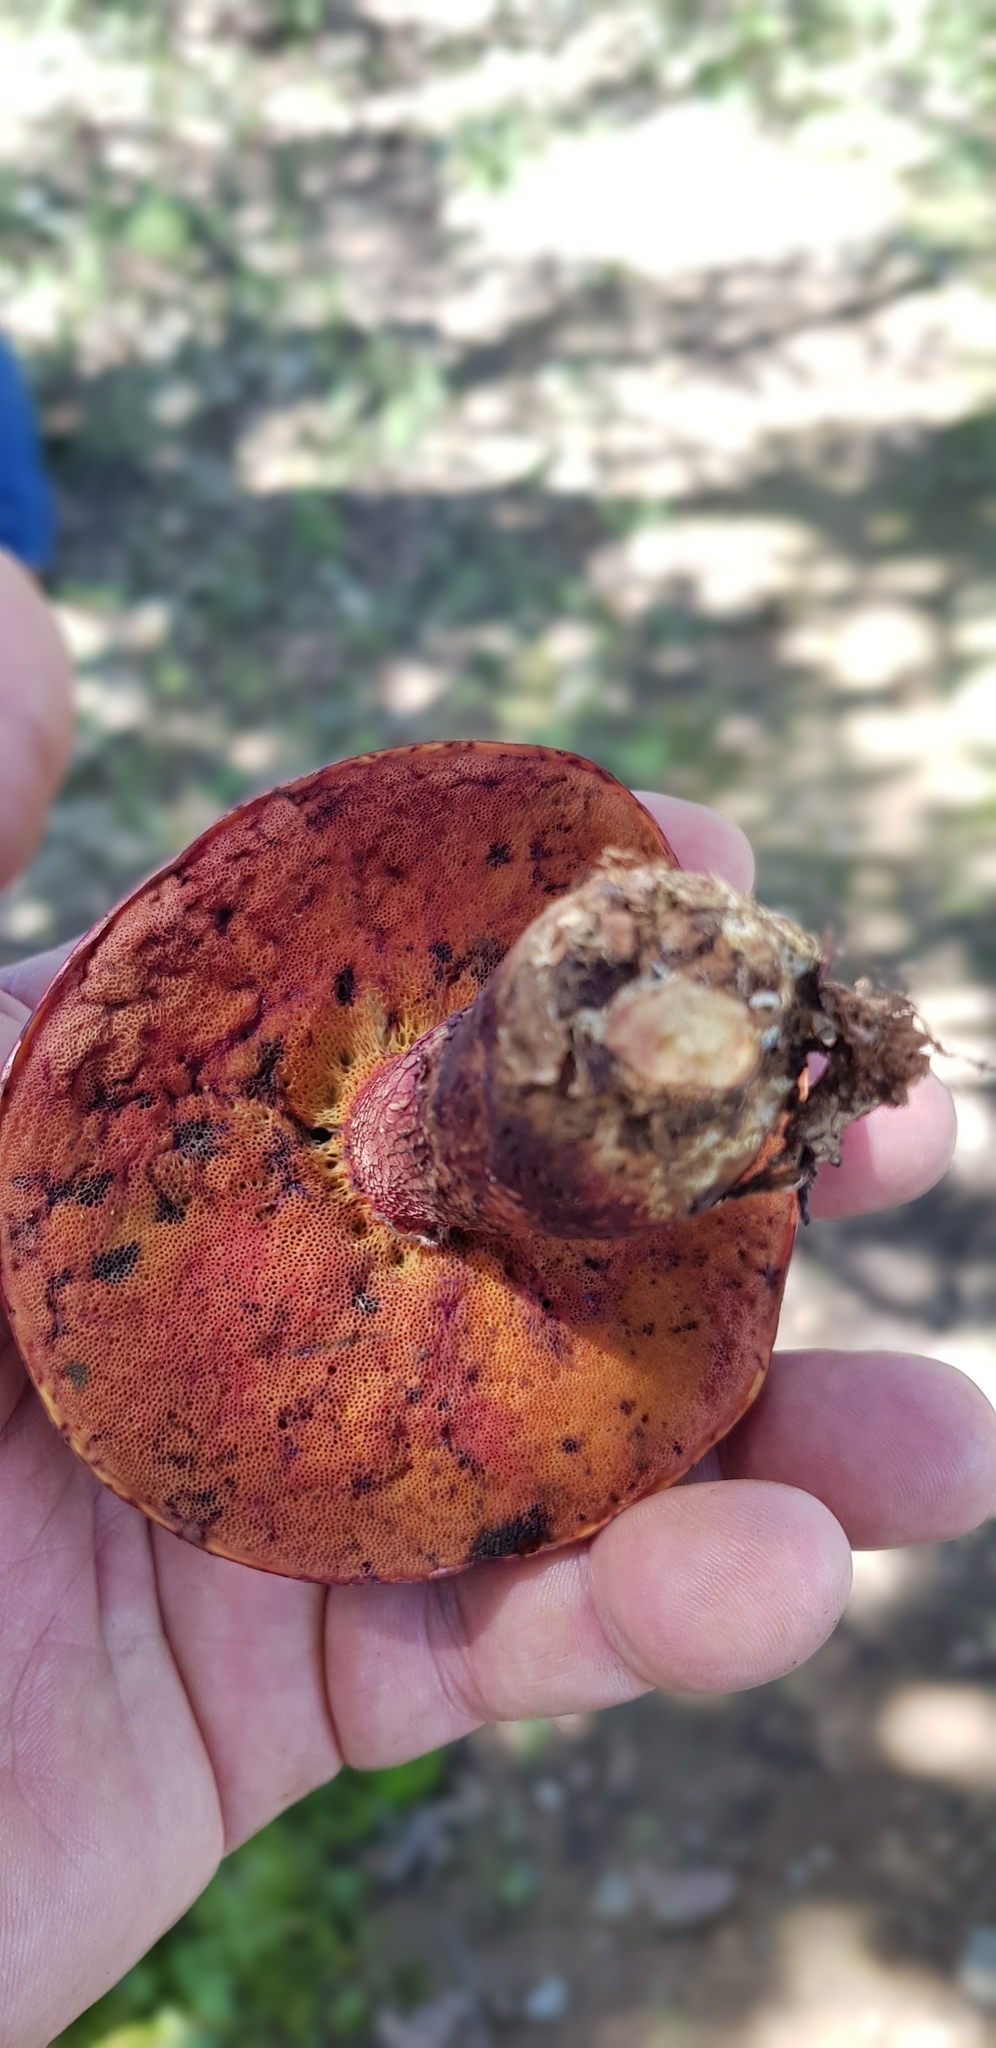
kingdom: Fungi
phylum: Basidiomycota
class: Agaricomycetes
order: Boletales
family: Boletaceae
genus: Butyriboletus
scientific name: Butyriboletus frostii
